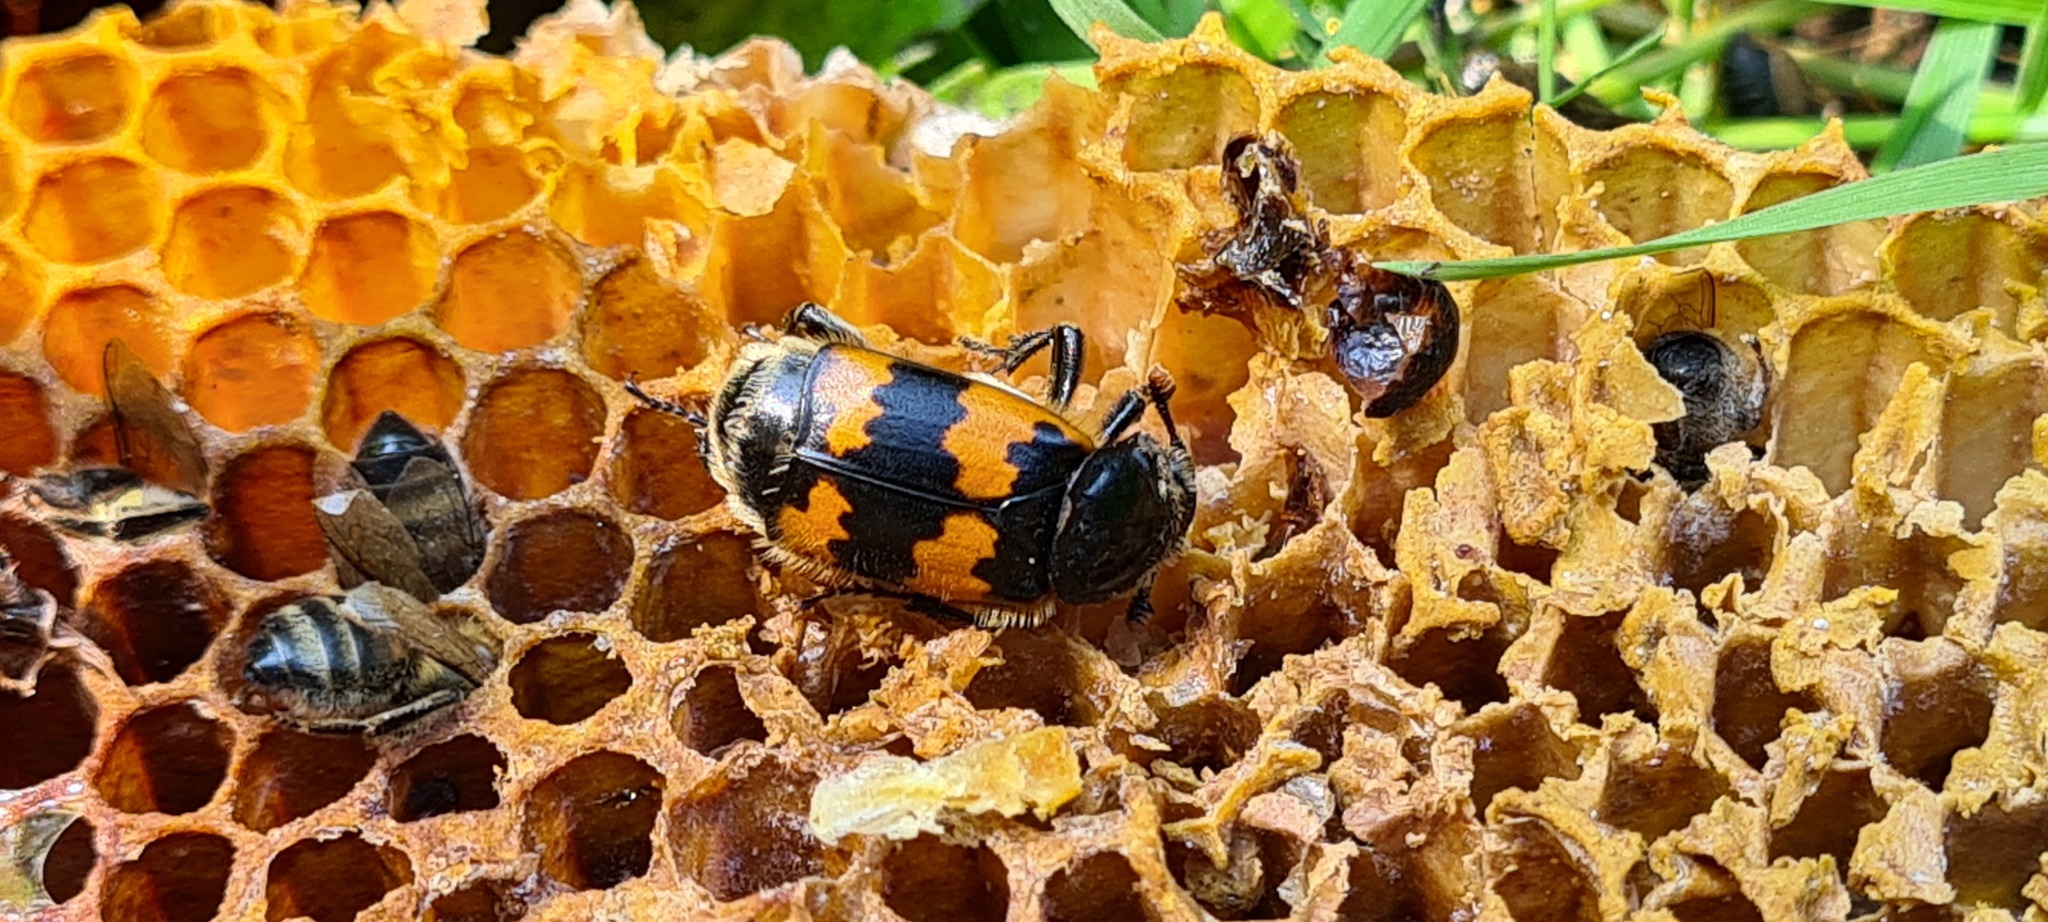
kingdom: Animalia
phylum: Arthropoda
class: Insecta
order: Coleoptera
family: Staphylinidae
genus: Nicrophorus
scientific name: Nicrophorus vespillo
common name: Common burying beetle
